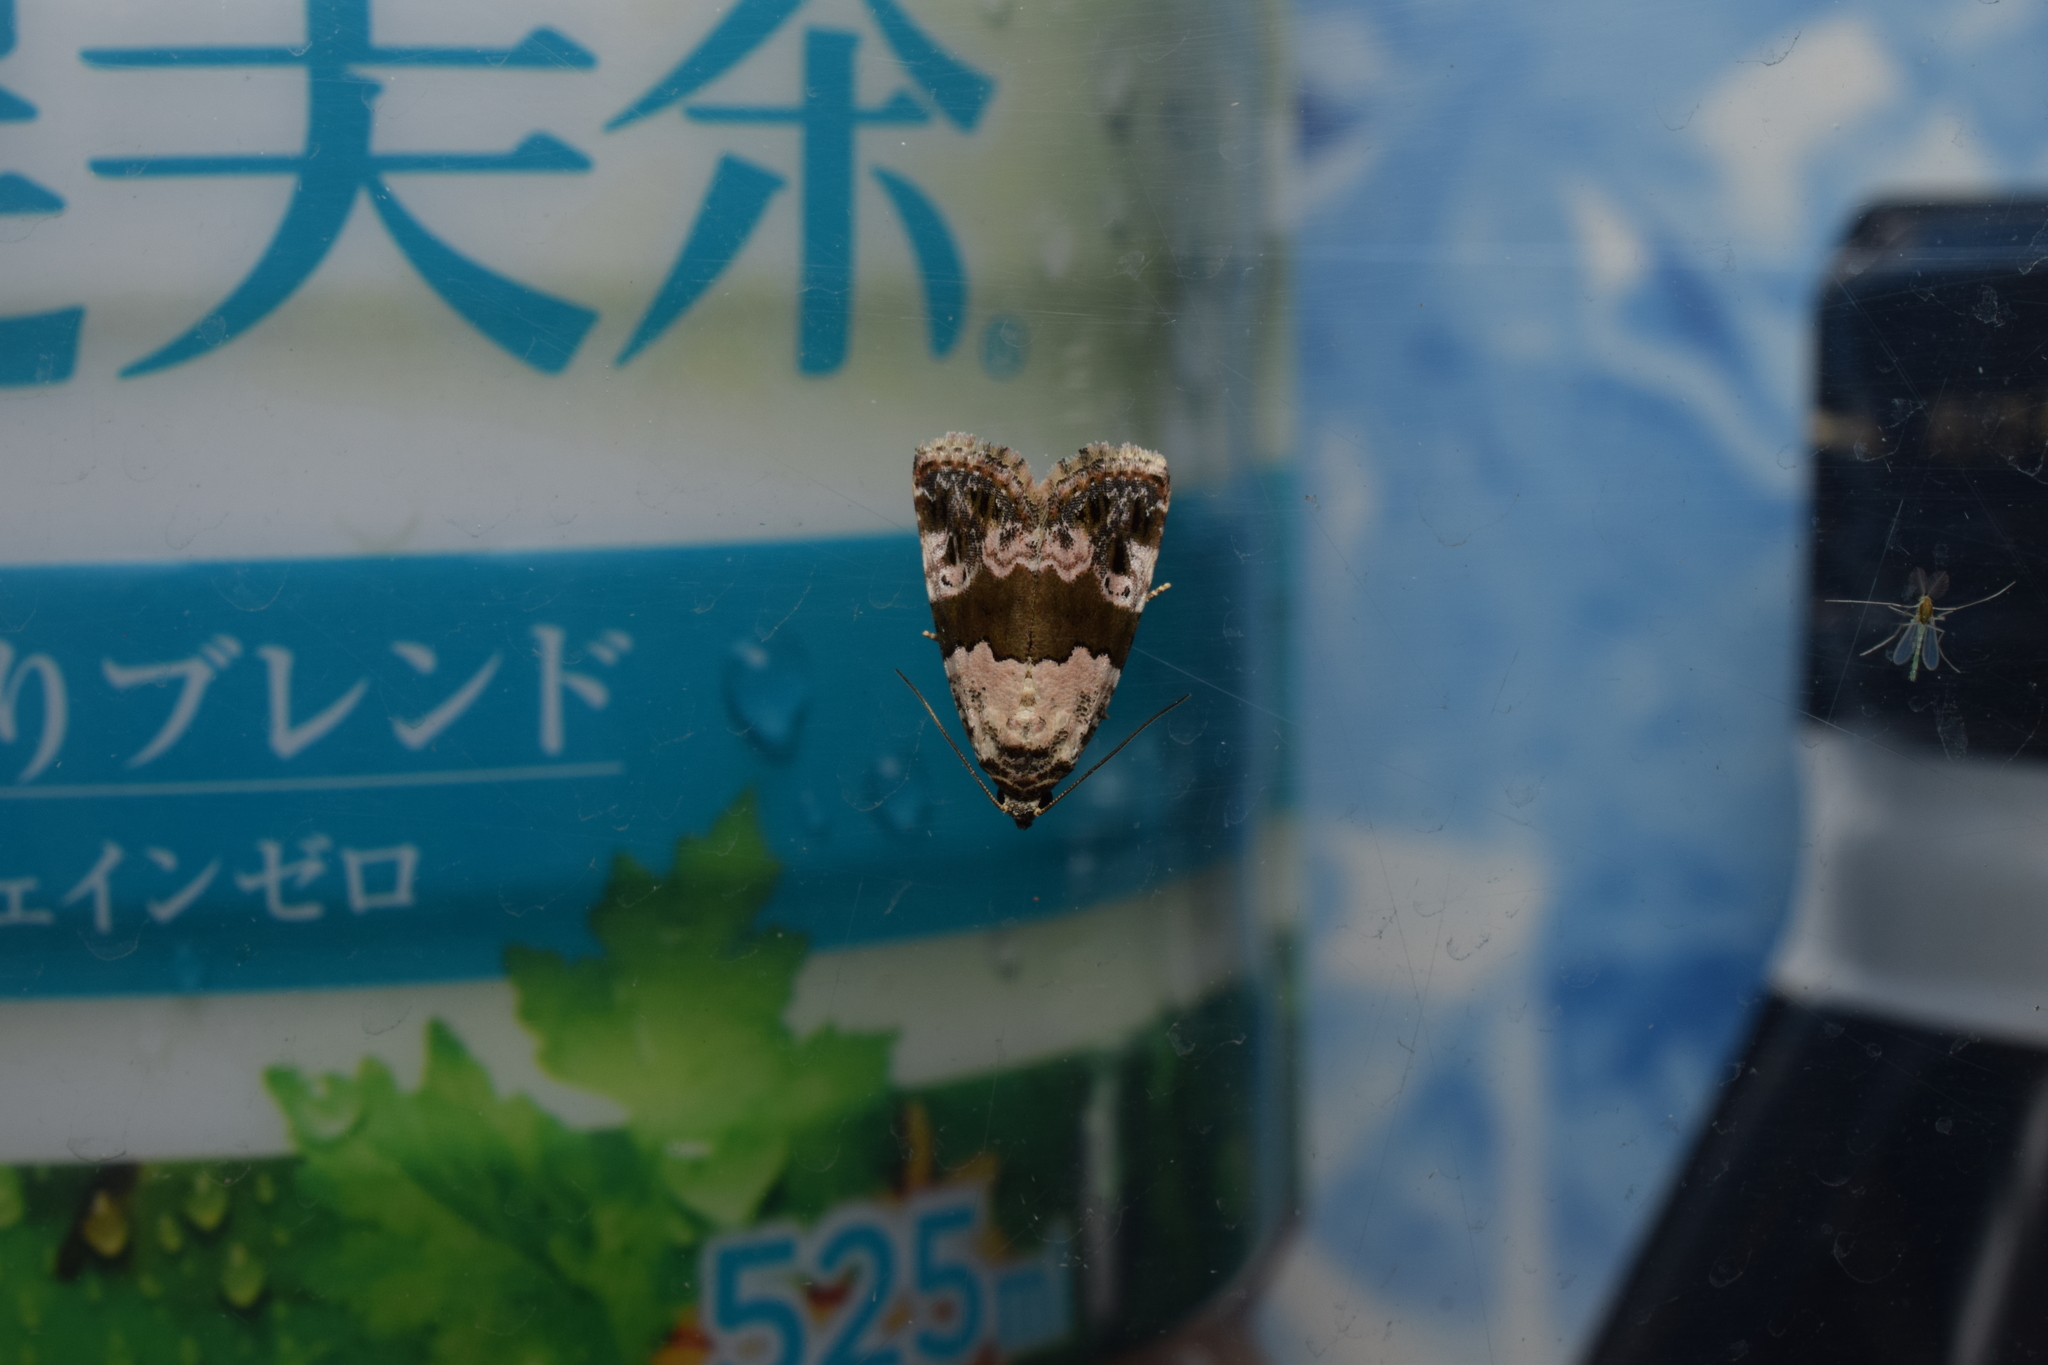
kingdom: Animalia
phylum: Arthropoda
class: Insecta
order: Lepidoptera
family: Noctuidae
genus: Maliattha
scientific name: Maliattha signifera
